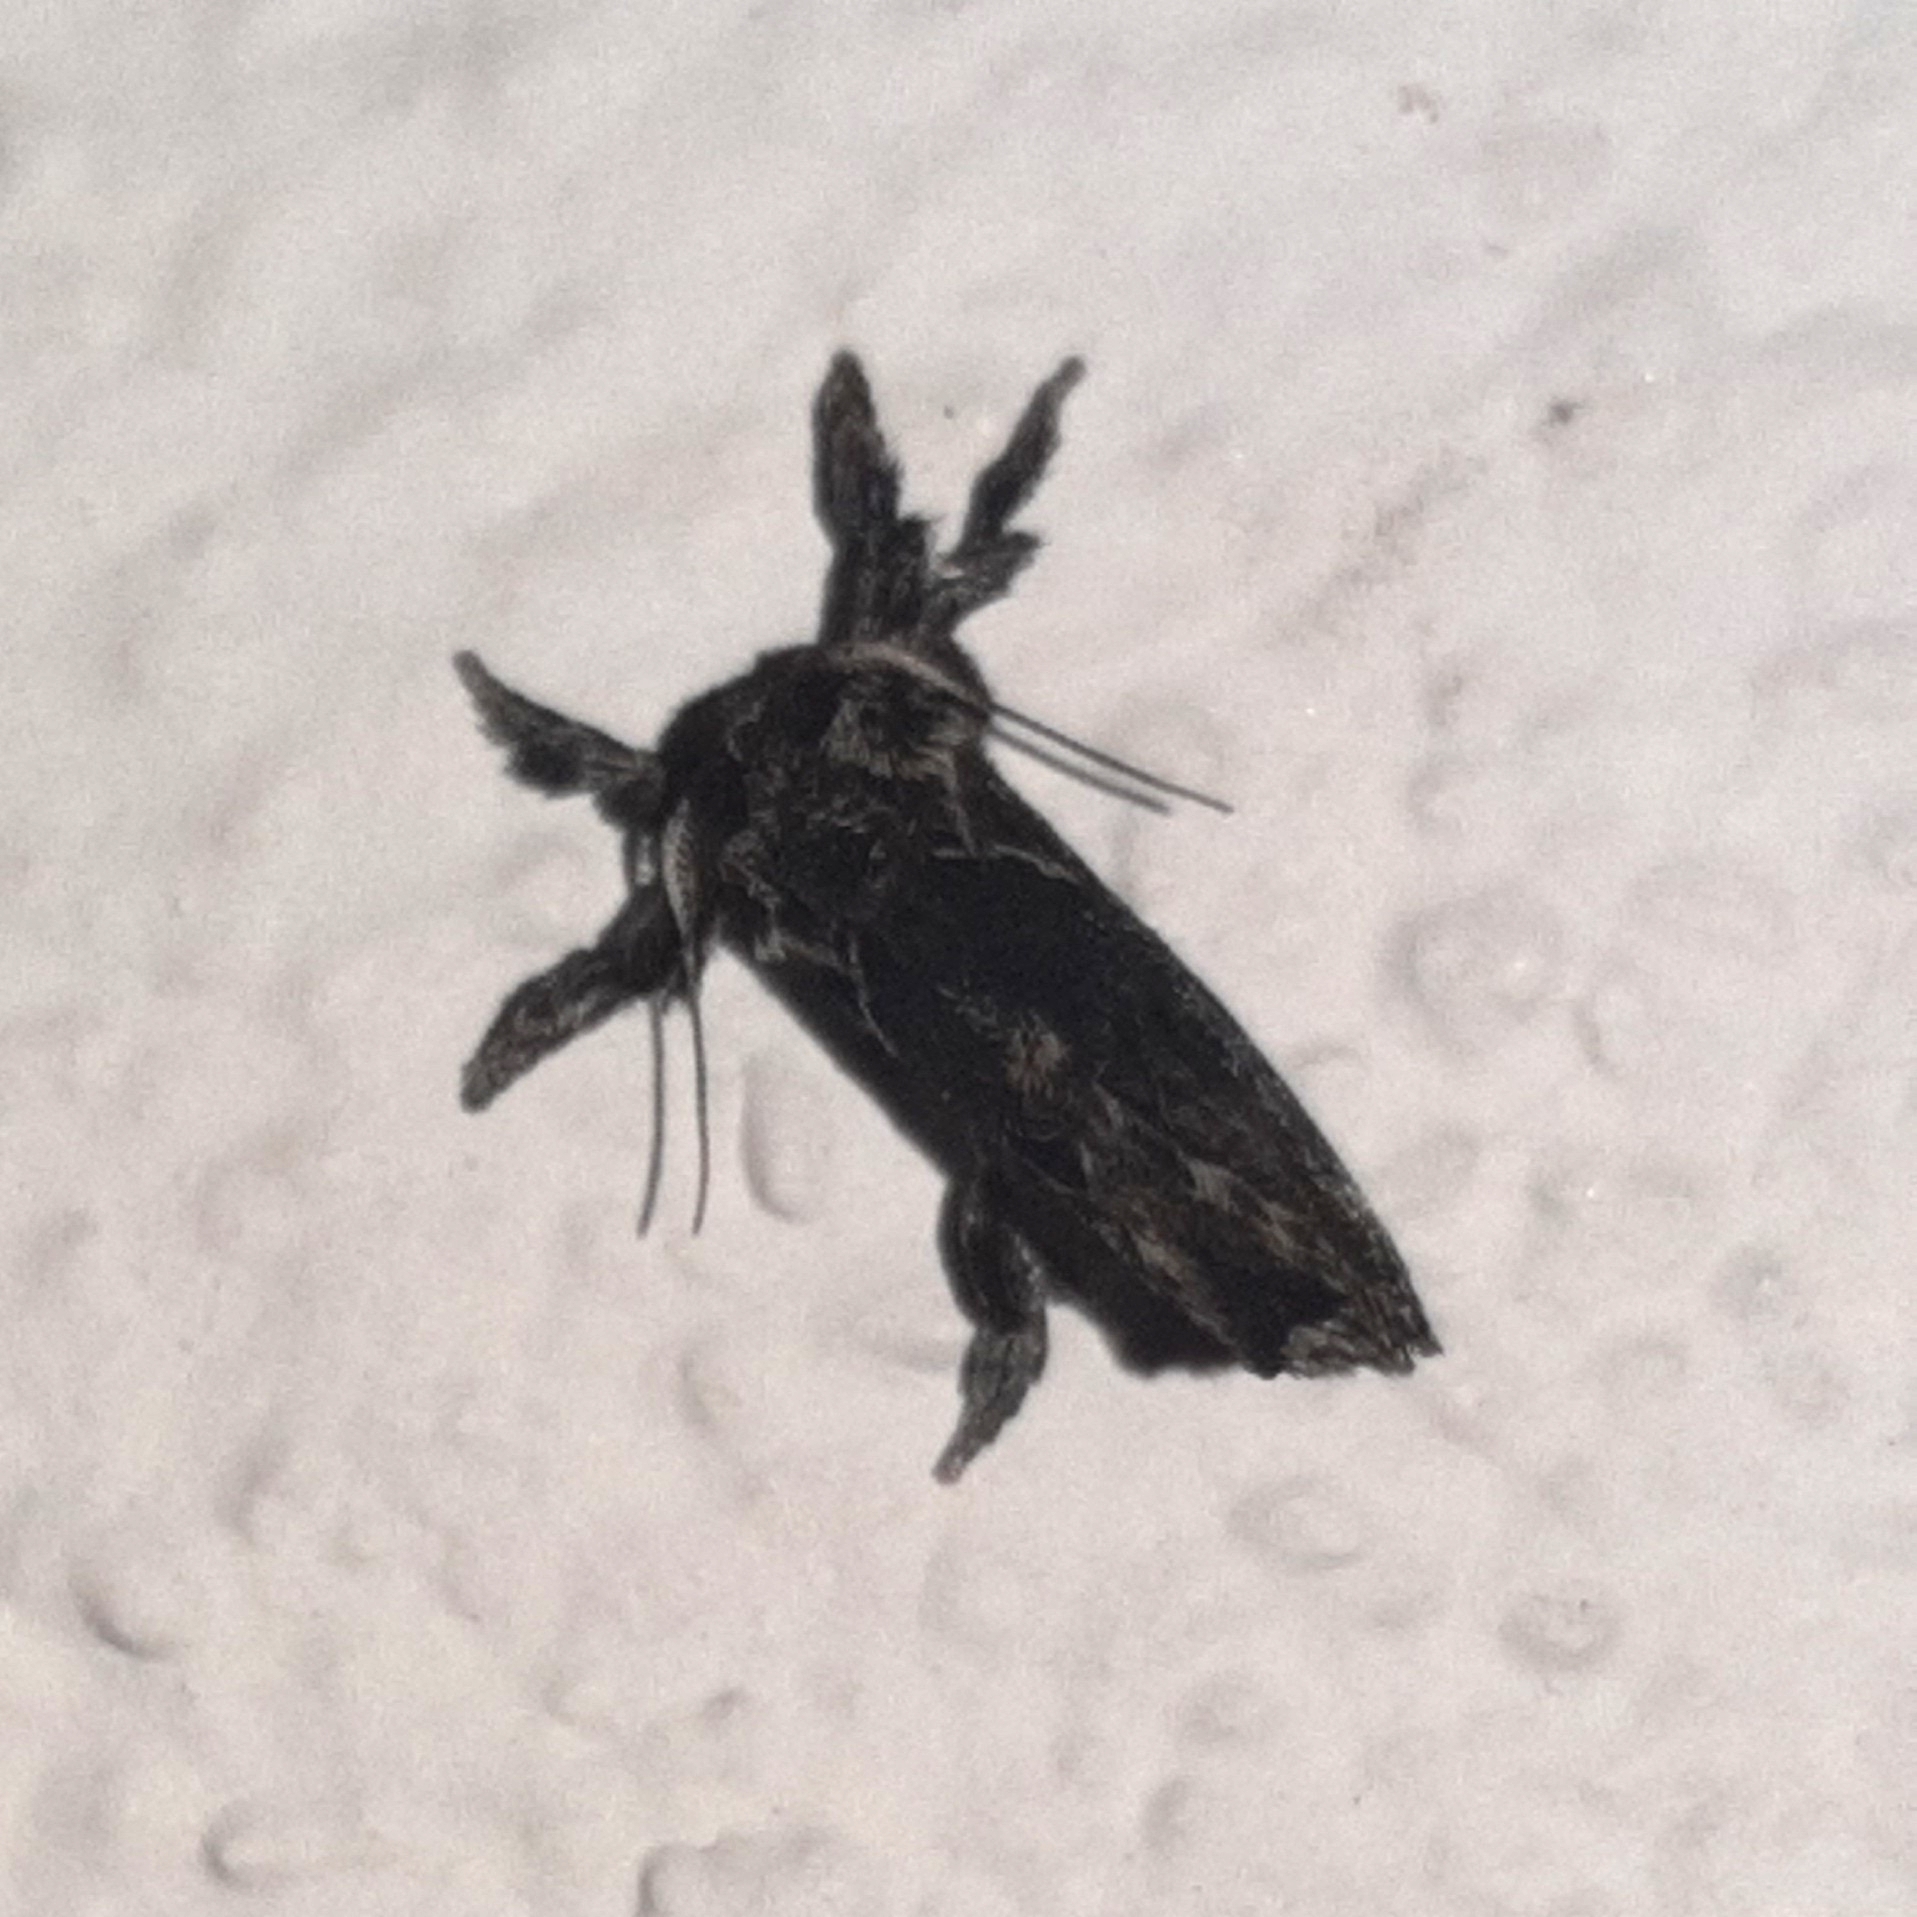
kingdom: Animalia
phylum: Arthropoda
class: Insecta
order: Lepidoptera
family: Limacodidae
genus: Euclea
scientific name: Euclea plugma
